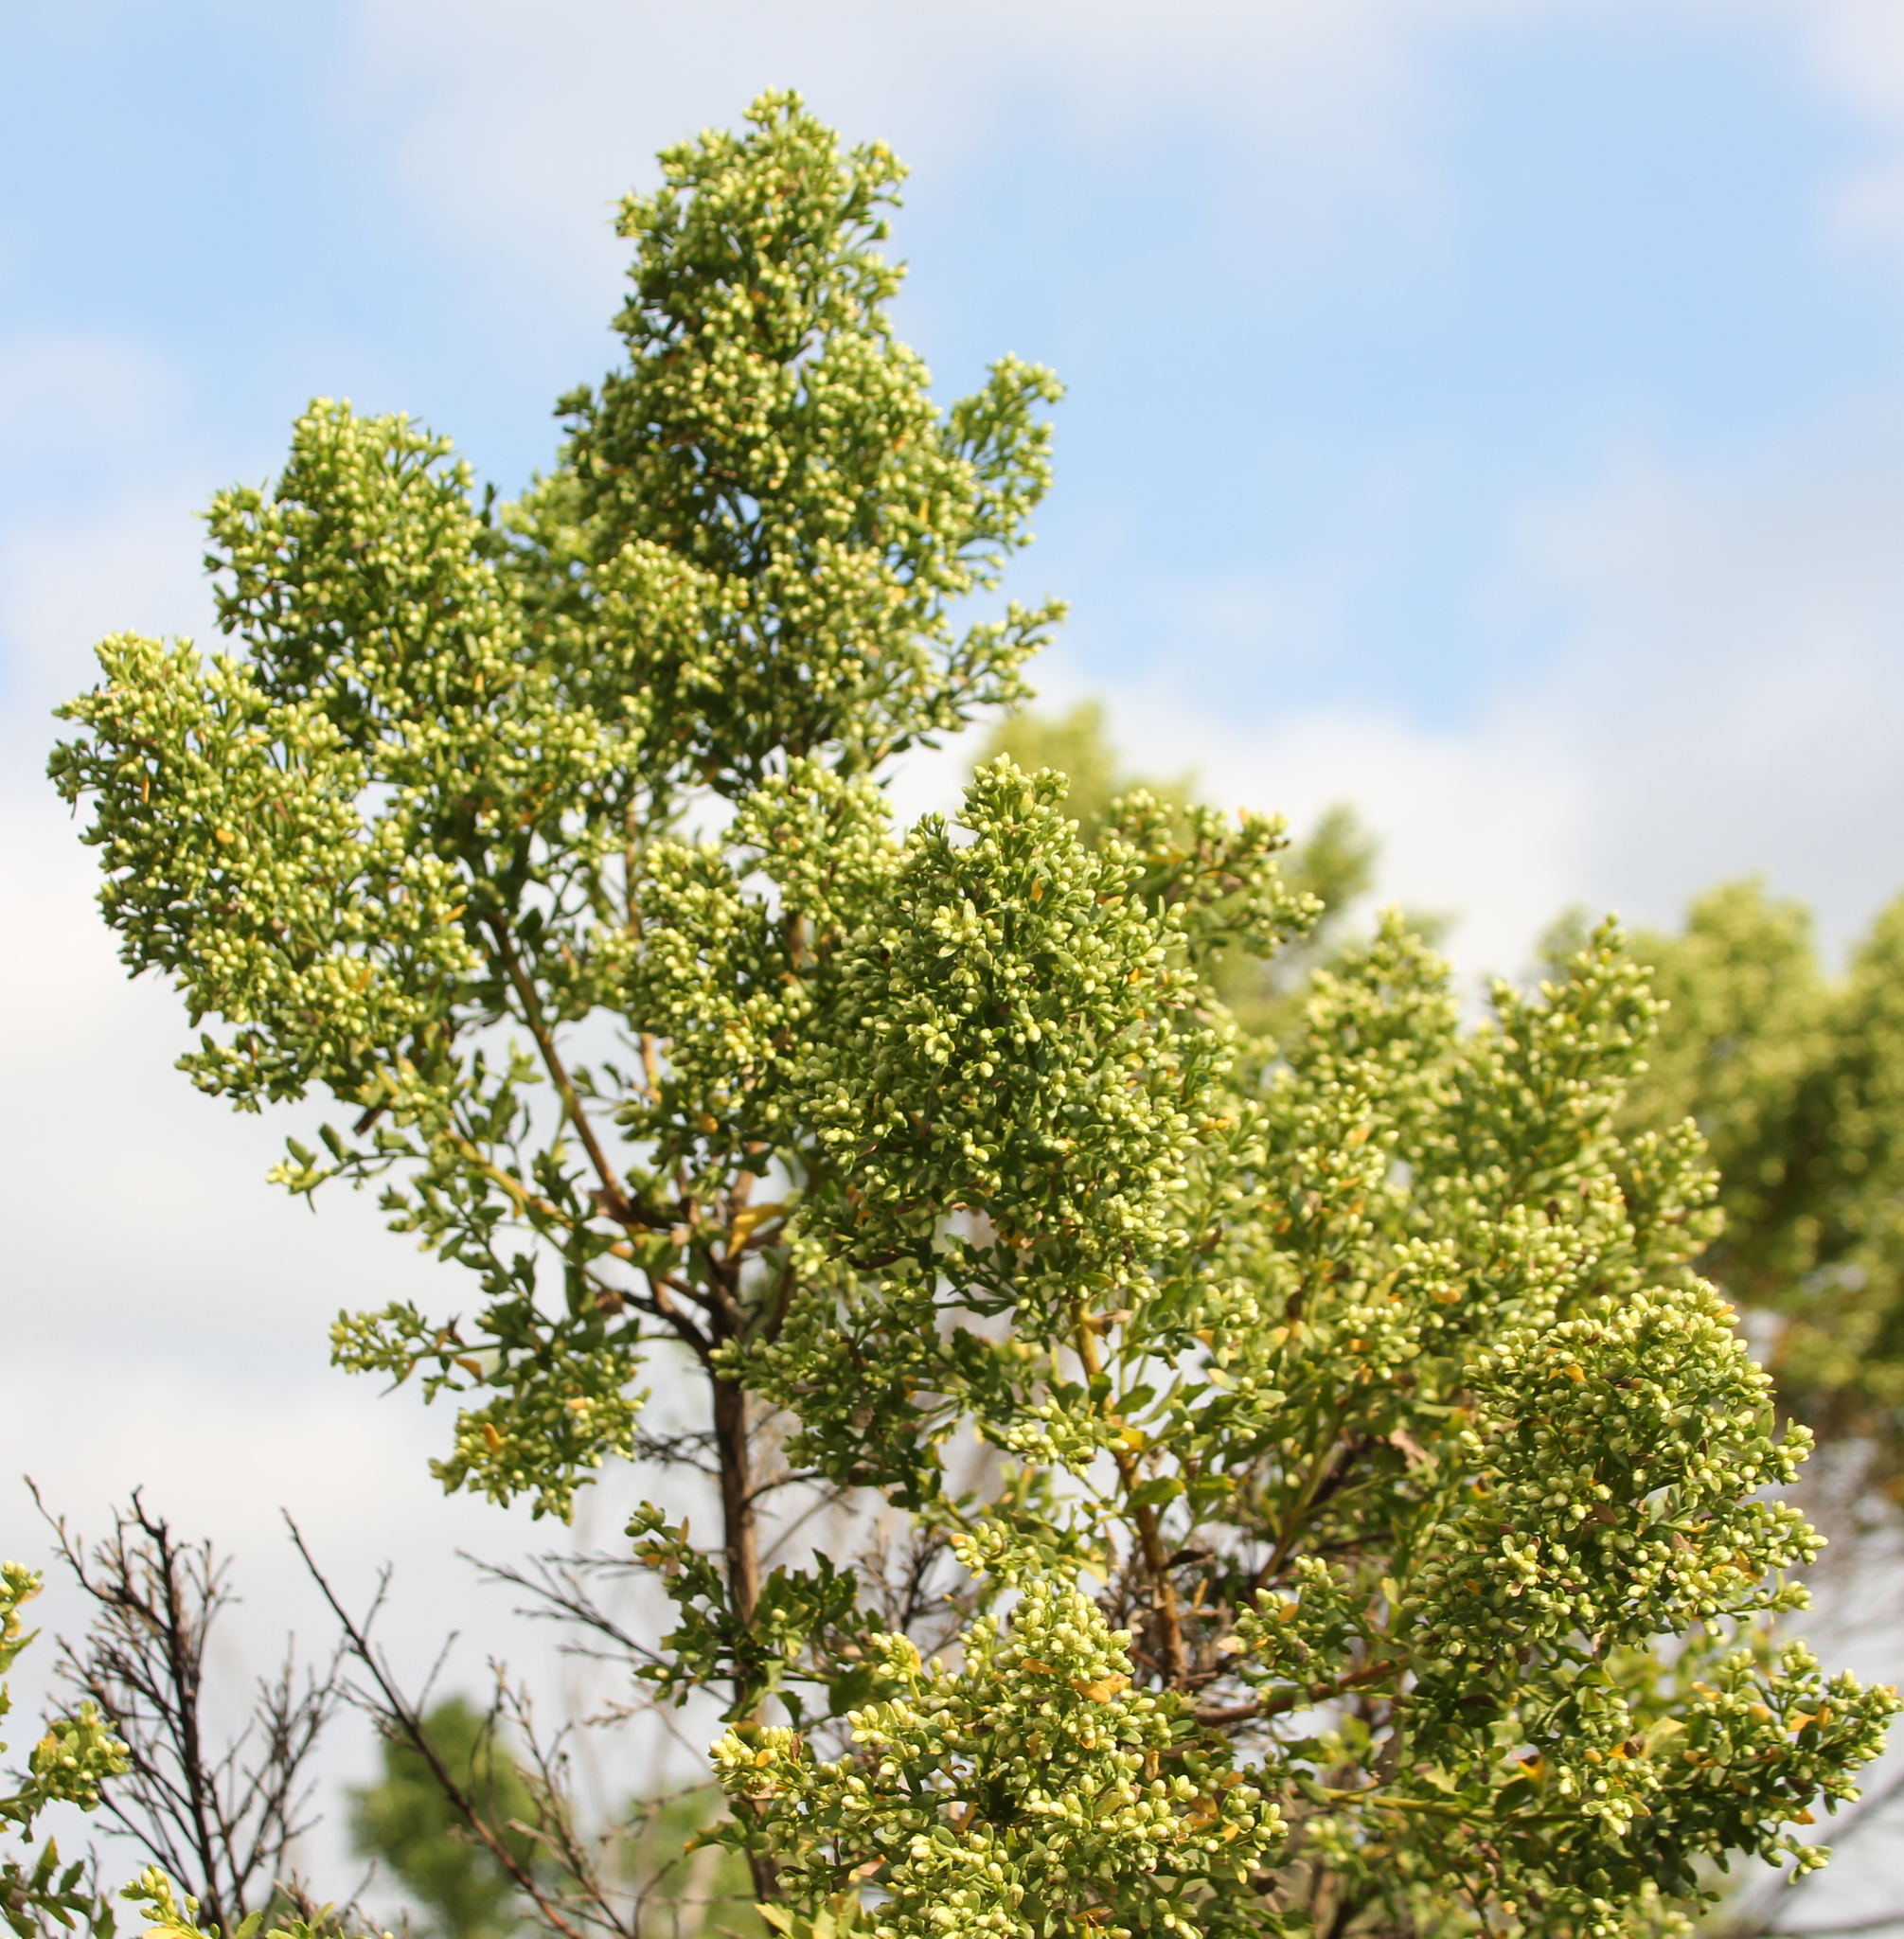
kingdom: Plantae
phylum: Tracheophyta
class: Magnoliopsida
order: Asterales
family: Asteraceae
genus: Baccharis
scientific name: Baccharis pilularis
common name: Coyotebrush
